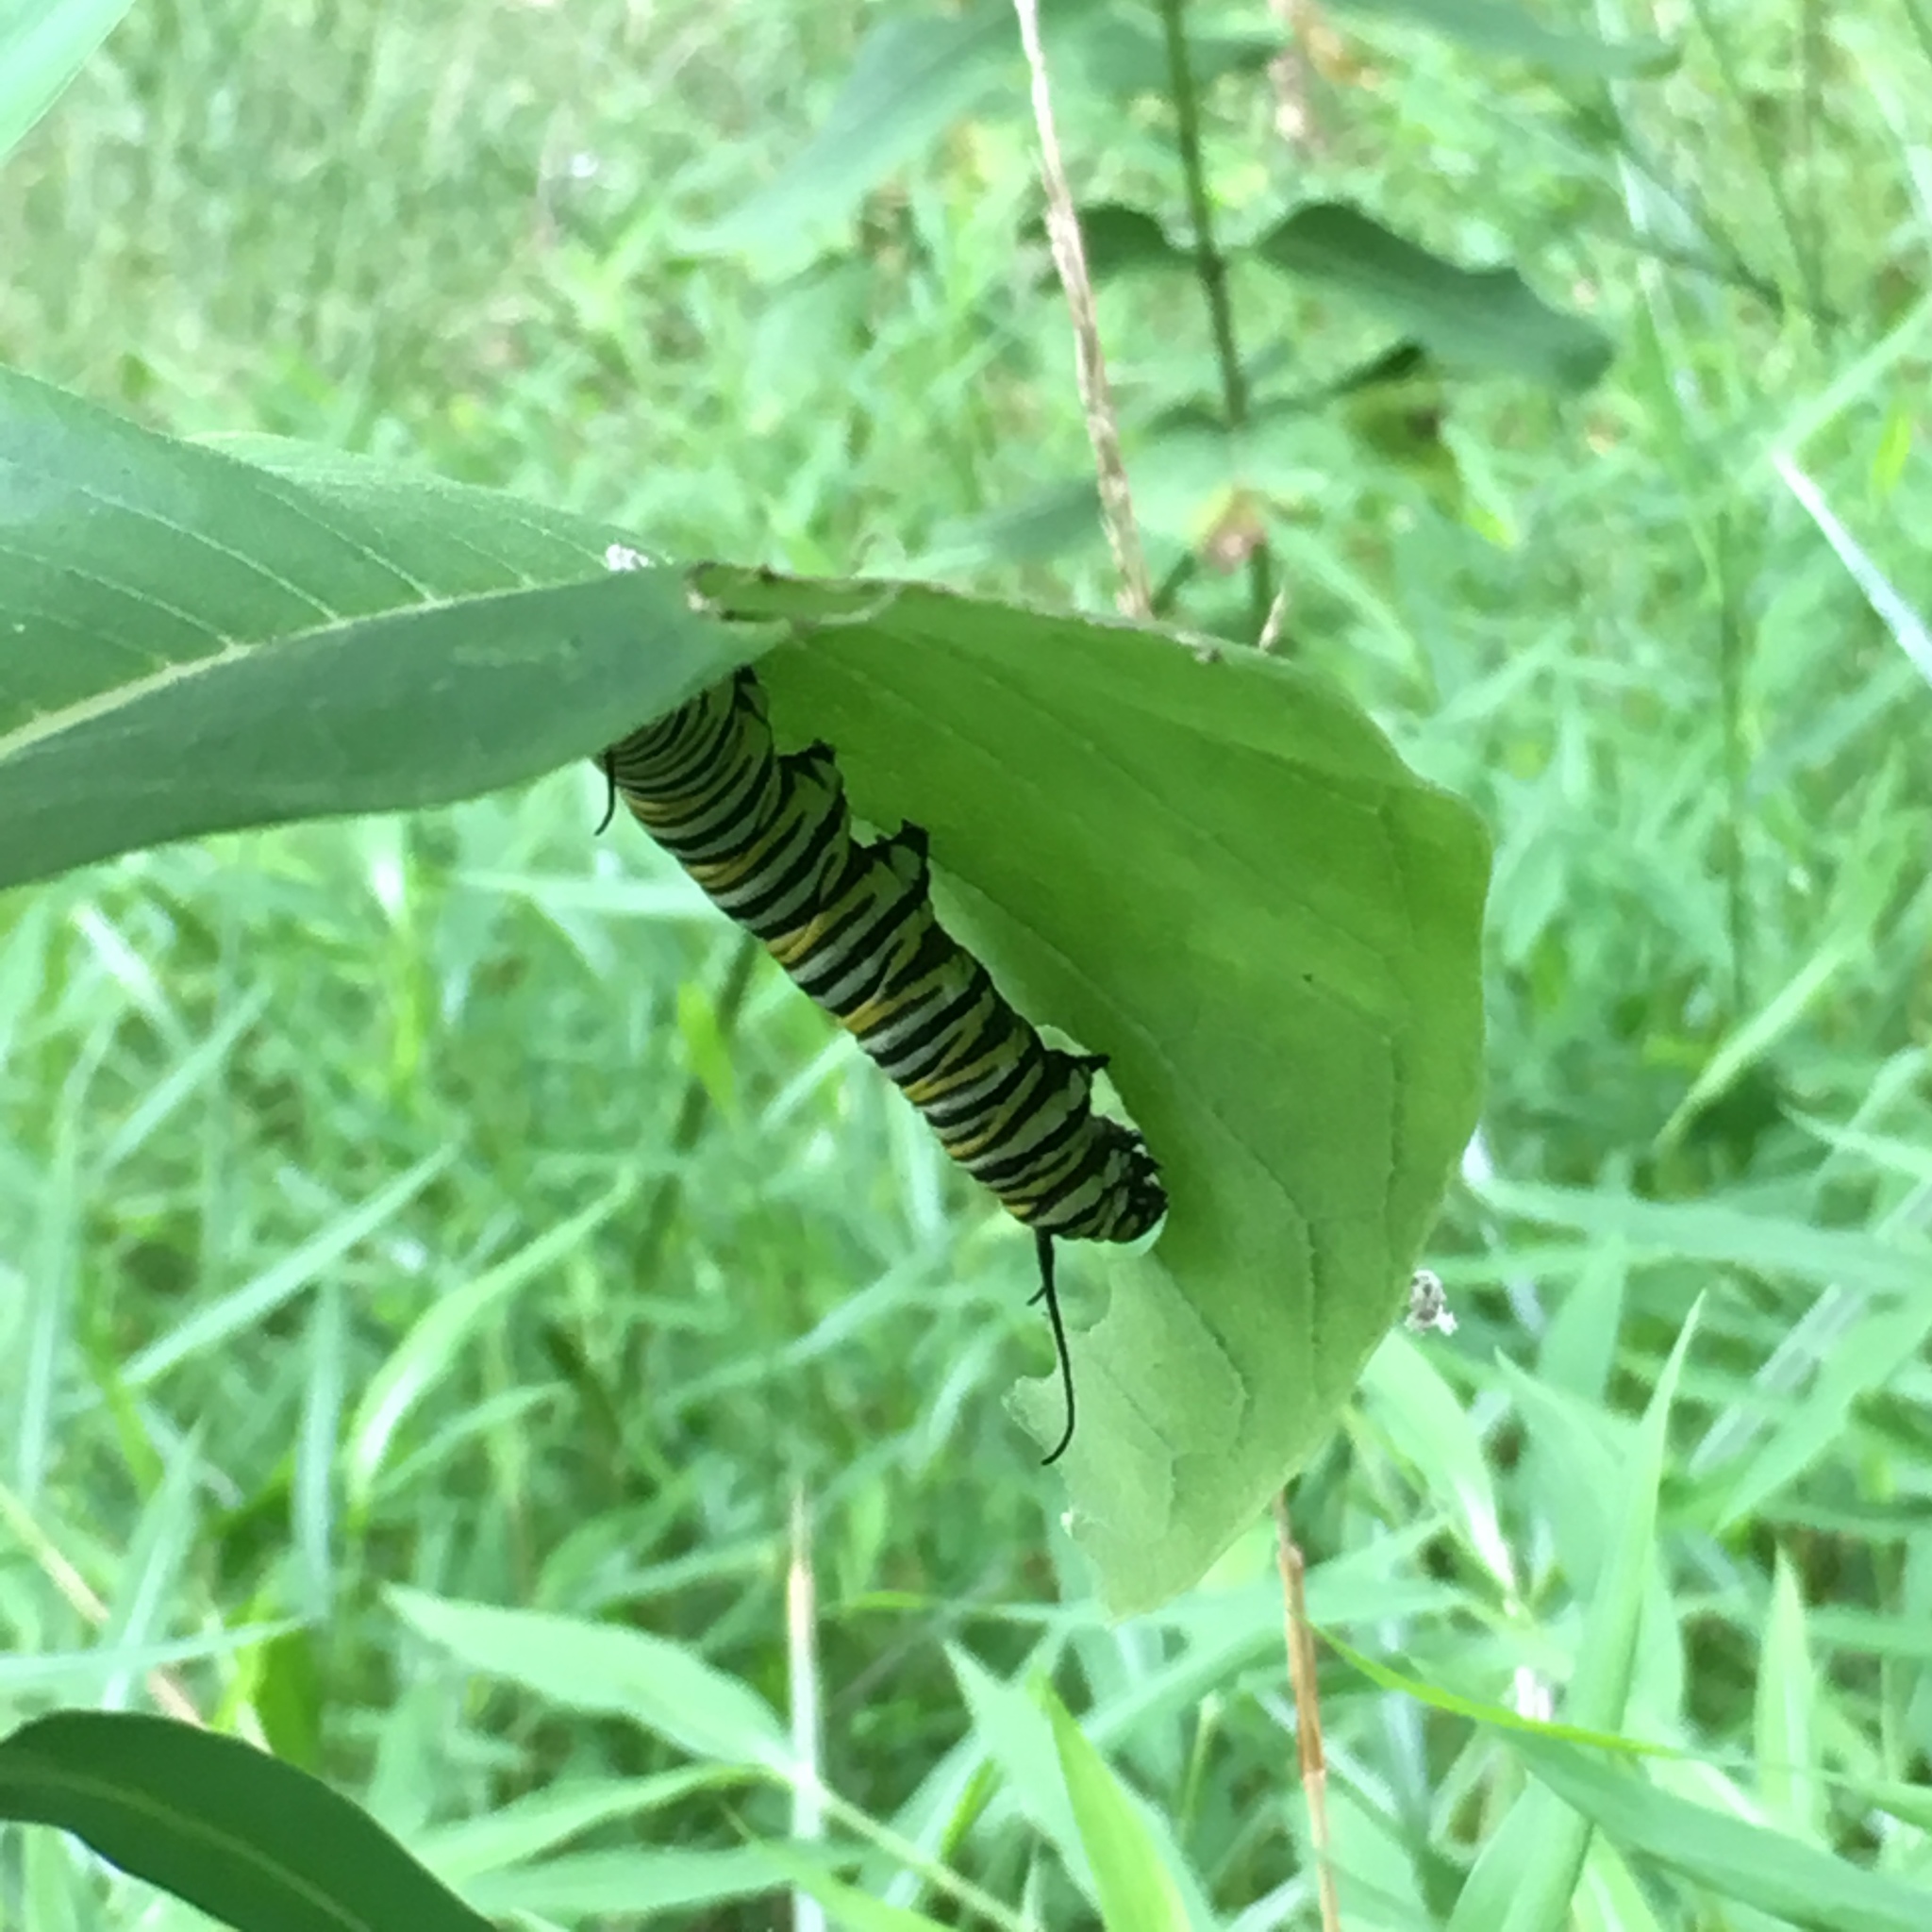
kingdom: Animalia
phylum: Arthropoda
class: Insecta
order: Lepidoptera
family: Nymphalidae
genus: Danaus
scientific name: Danaus plexippus
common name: Monarch
